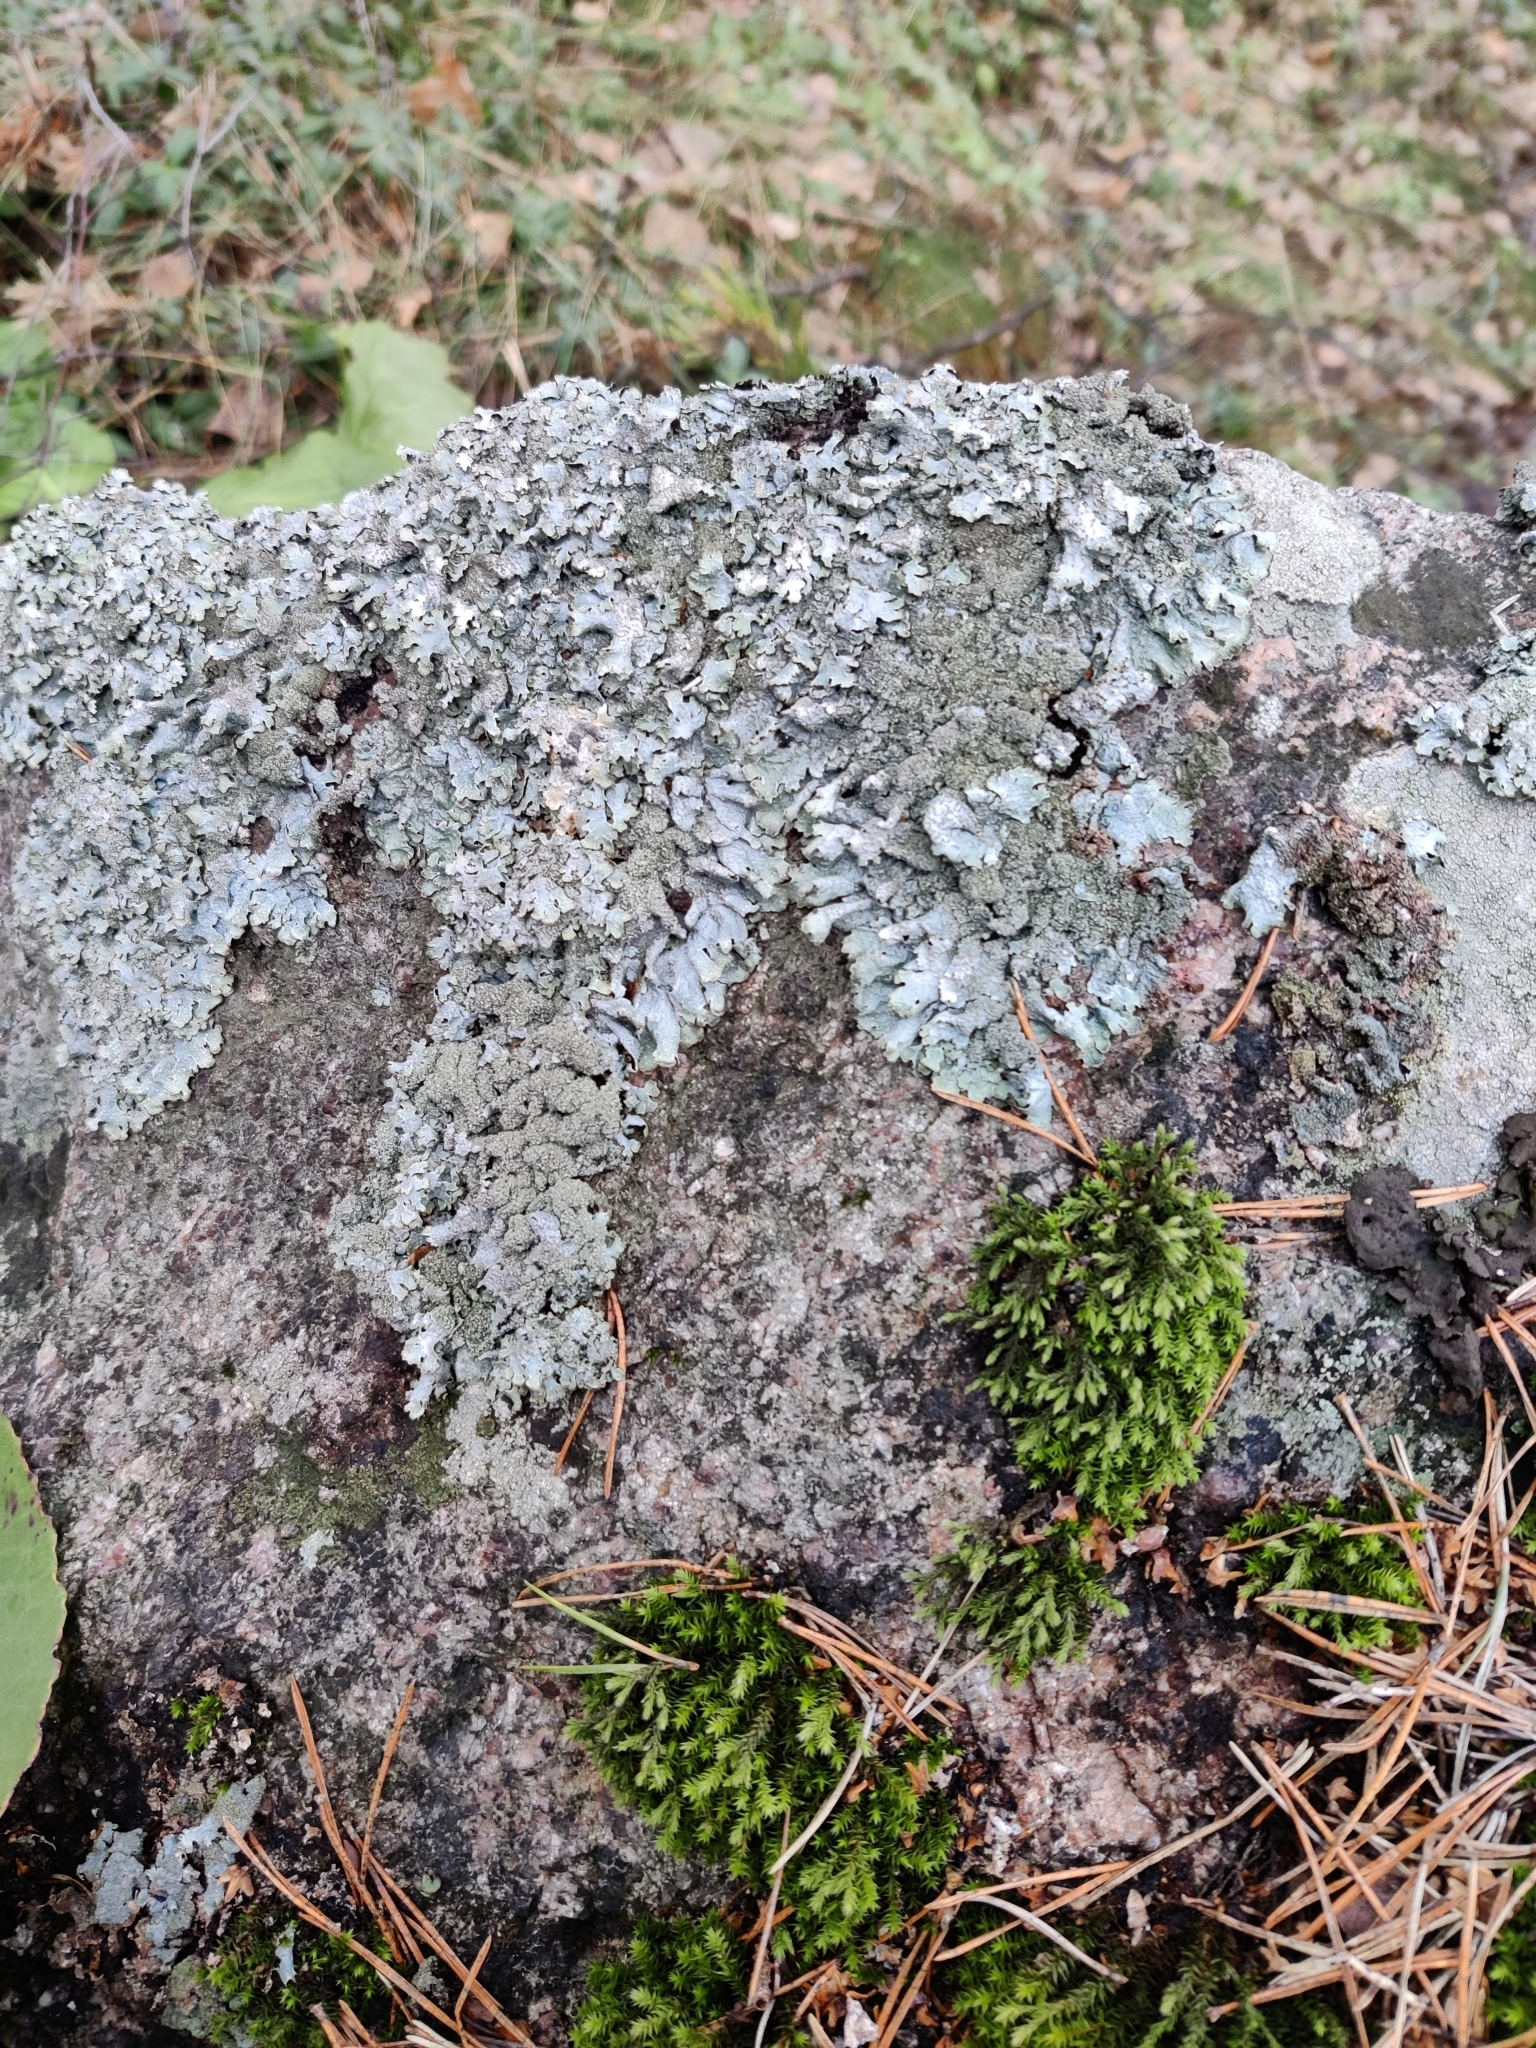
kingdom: Fungi
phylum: Ascomycota
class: Lecanoromycetes
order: Lecanorales
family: Parmeliaceae
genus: Parmelia
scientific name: Parmelia saxatilis
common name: Salted shield lichen
